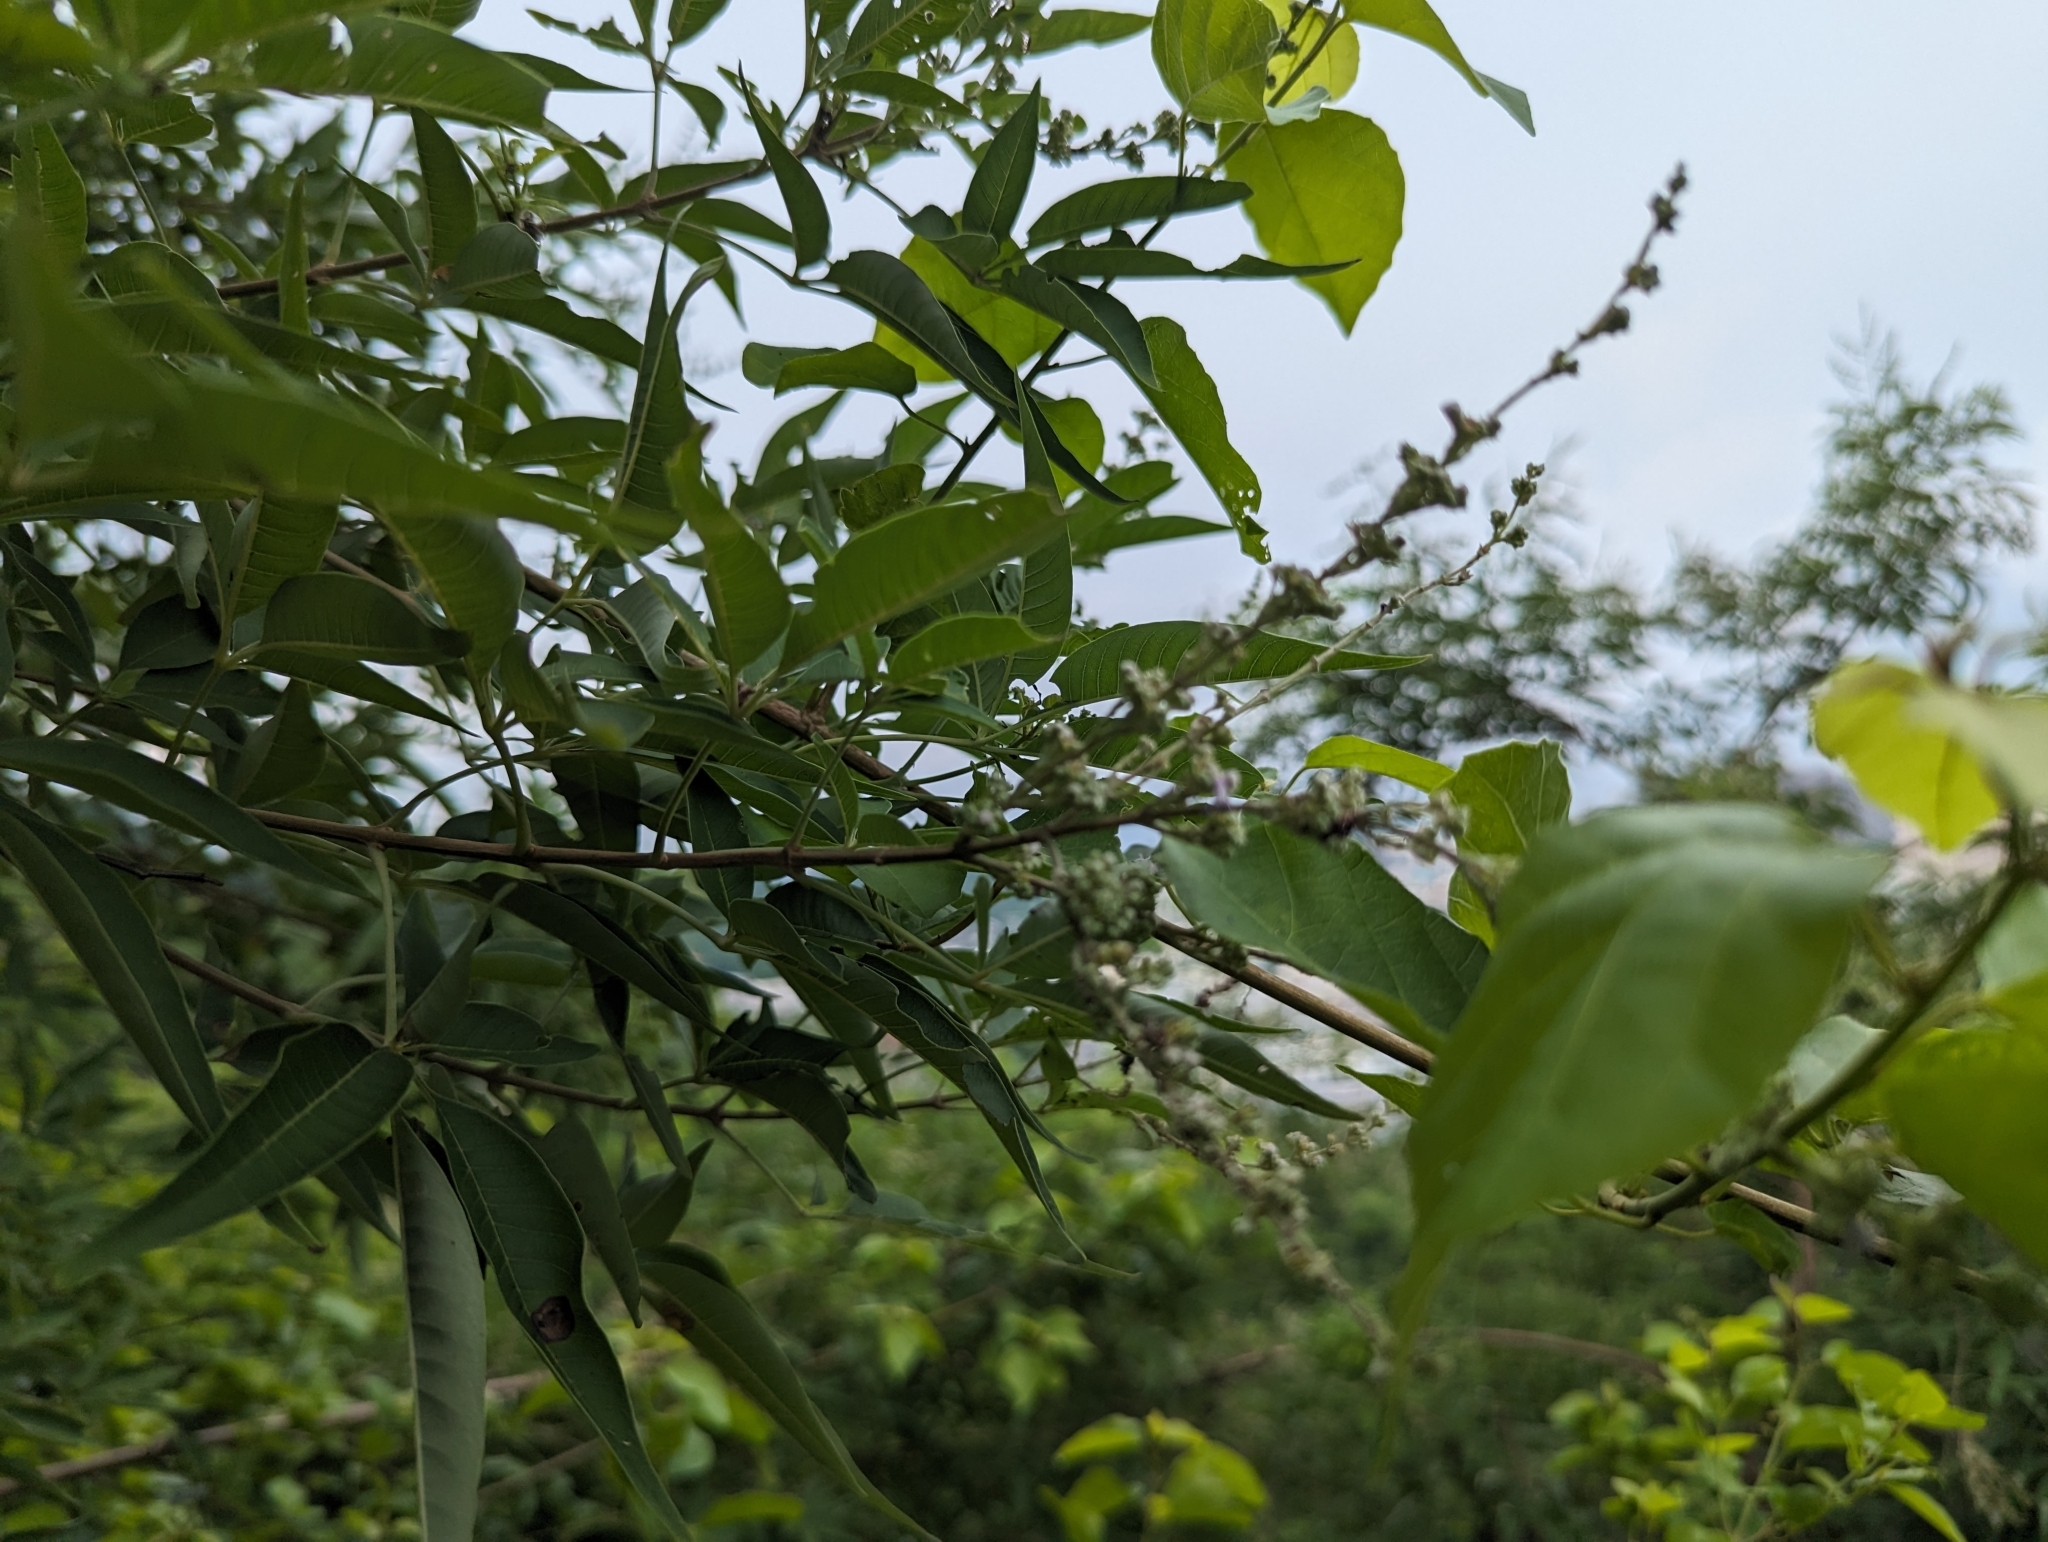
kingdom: Plantae
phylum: Tracheophyta
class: Magnoliopsida
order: Lamiales
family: Lamiaceae
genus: Vitex
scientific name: Vitex negundo
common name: Chinese chastetree
